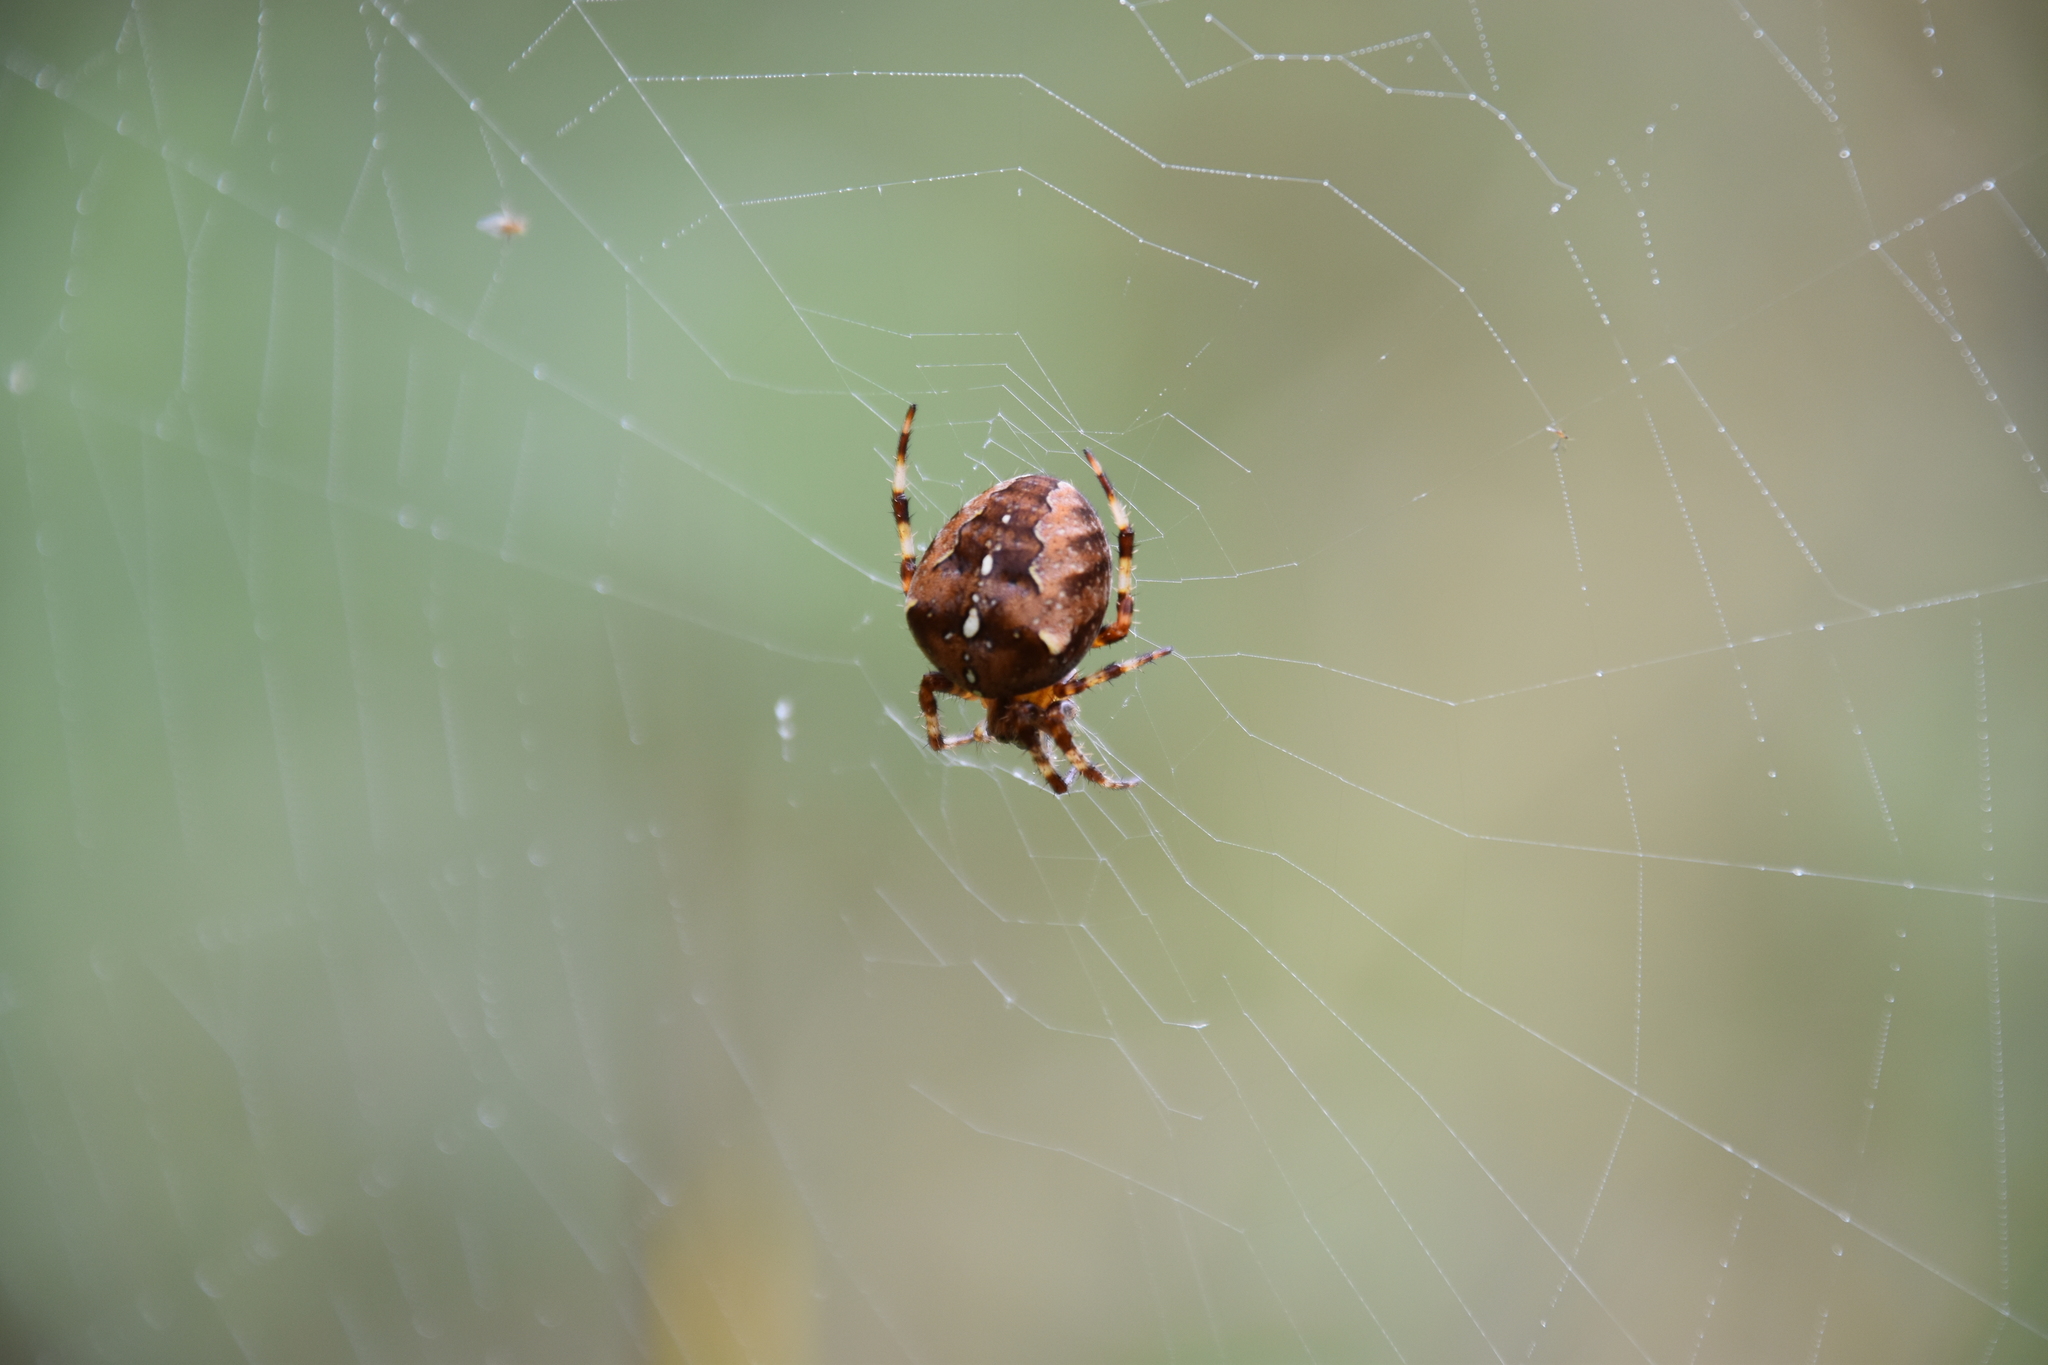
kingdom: Animalia
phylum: Arthropoda
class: Arachnida
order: Araneae
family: Araneidae
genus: Araneus
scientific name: Araneus diadematus
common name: Cross orbweaver
